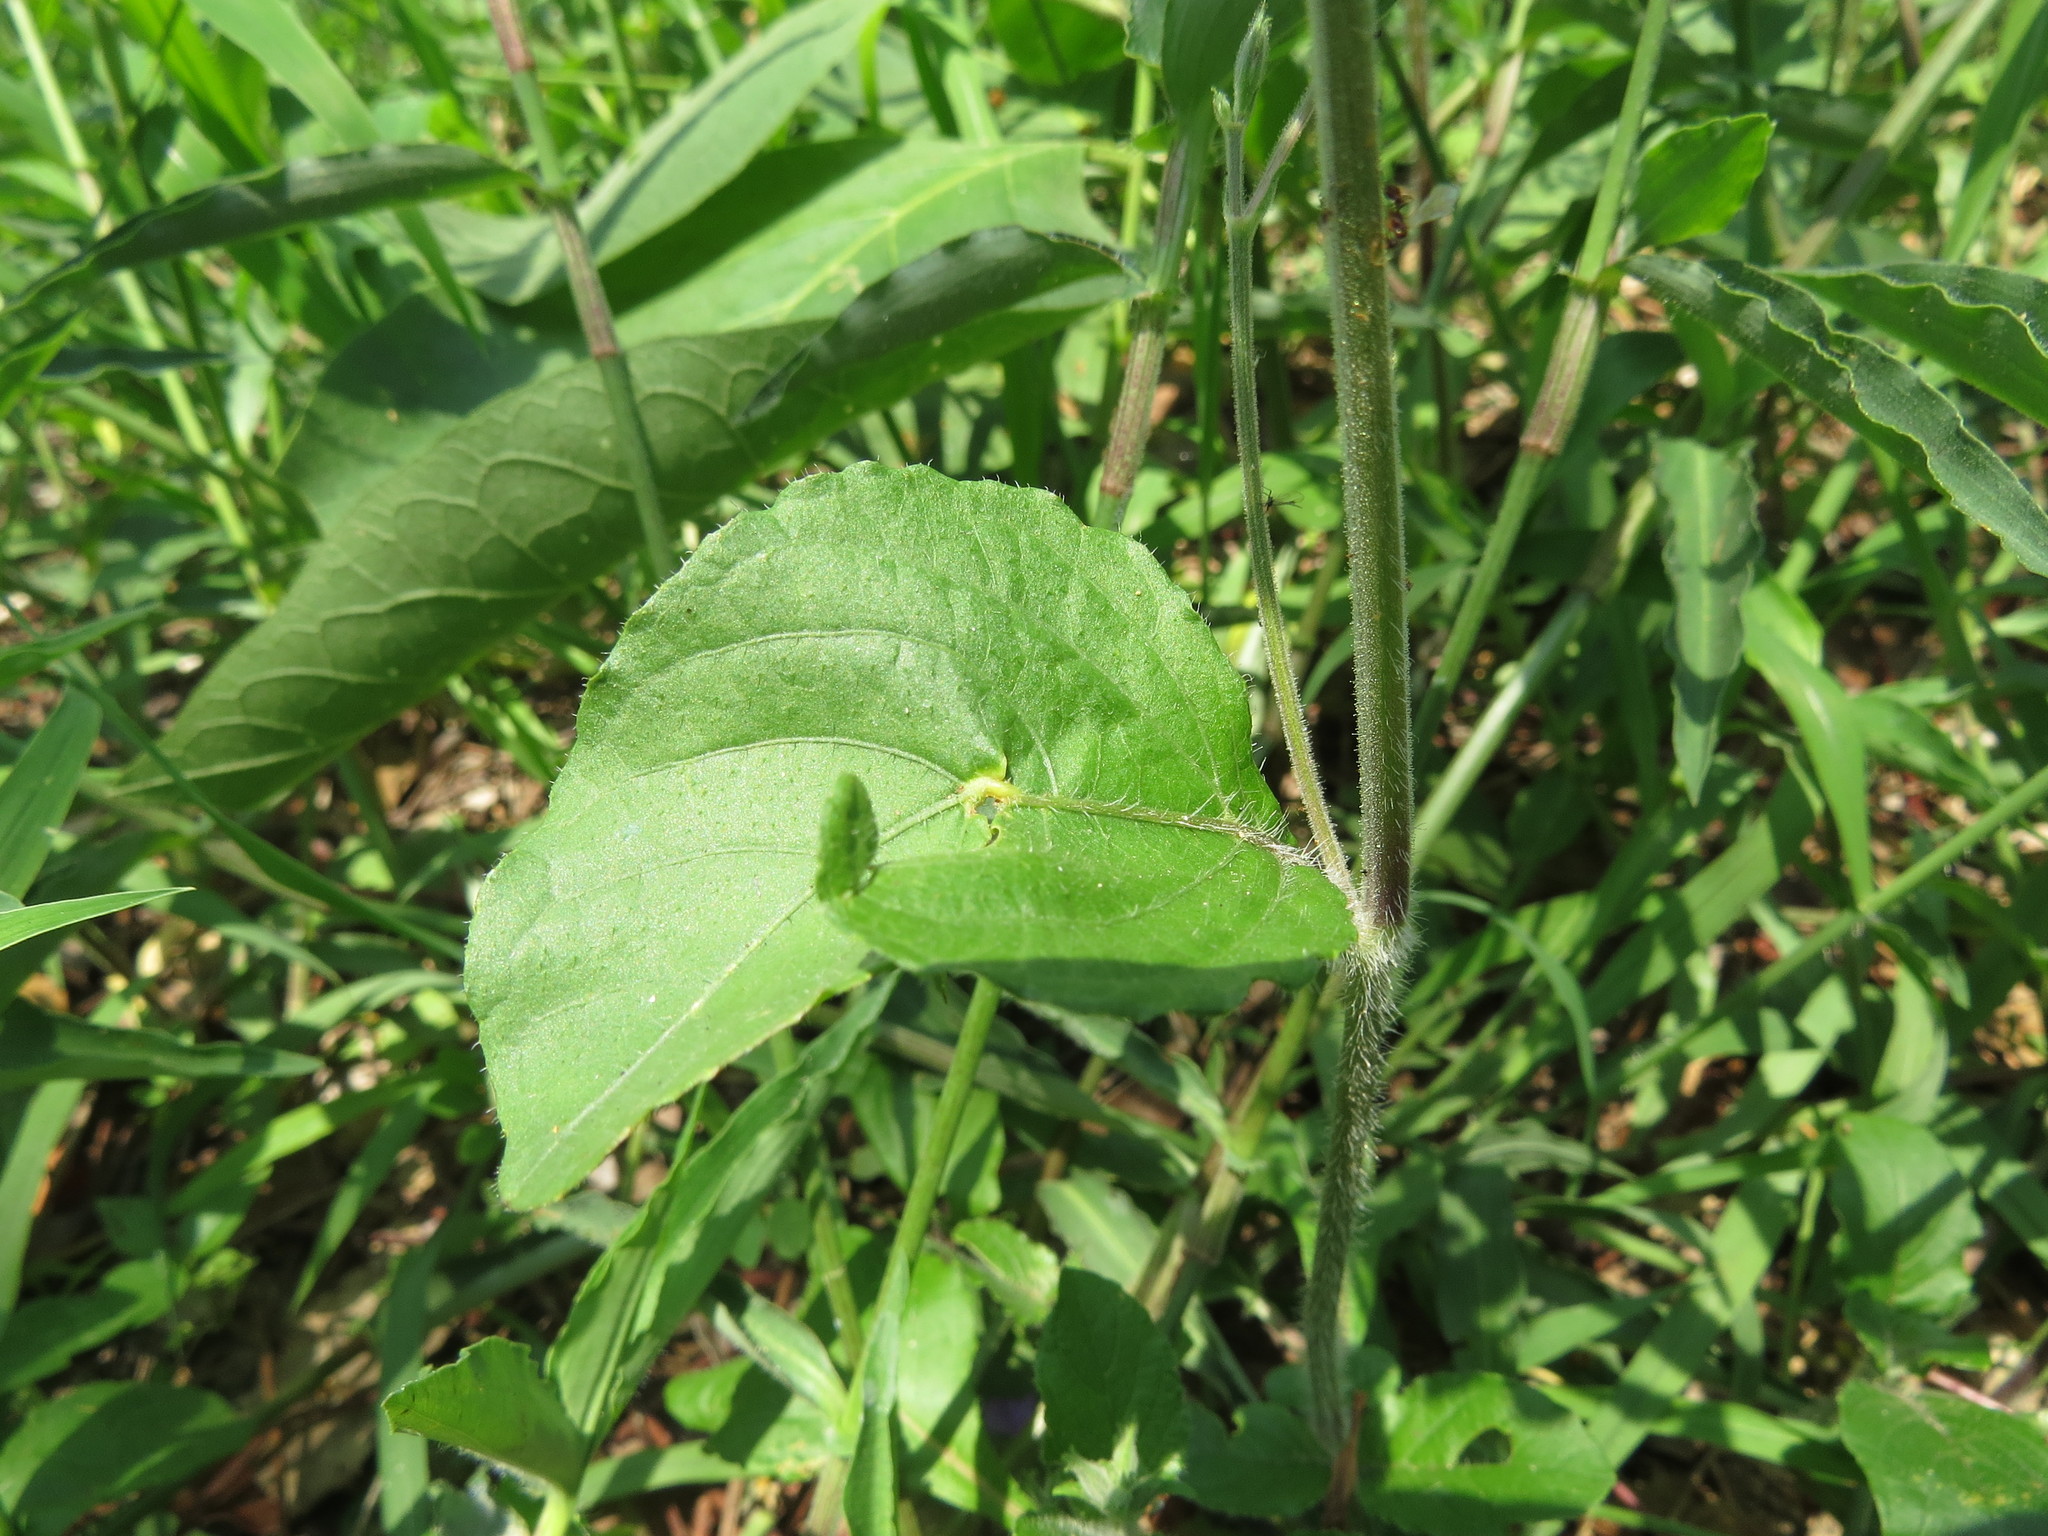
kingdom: Plantae
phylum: Tracheophyta
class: Magnoliopsida
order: Lamiales
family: Acanthaceae
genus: Ruellia
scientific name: Ruellia ciliatiflora
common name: Hairyflower wild petunia
